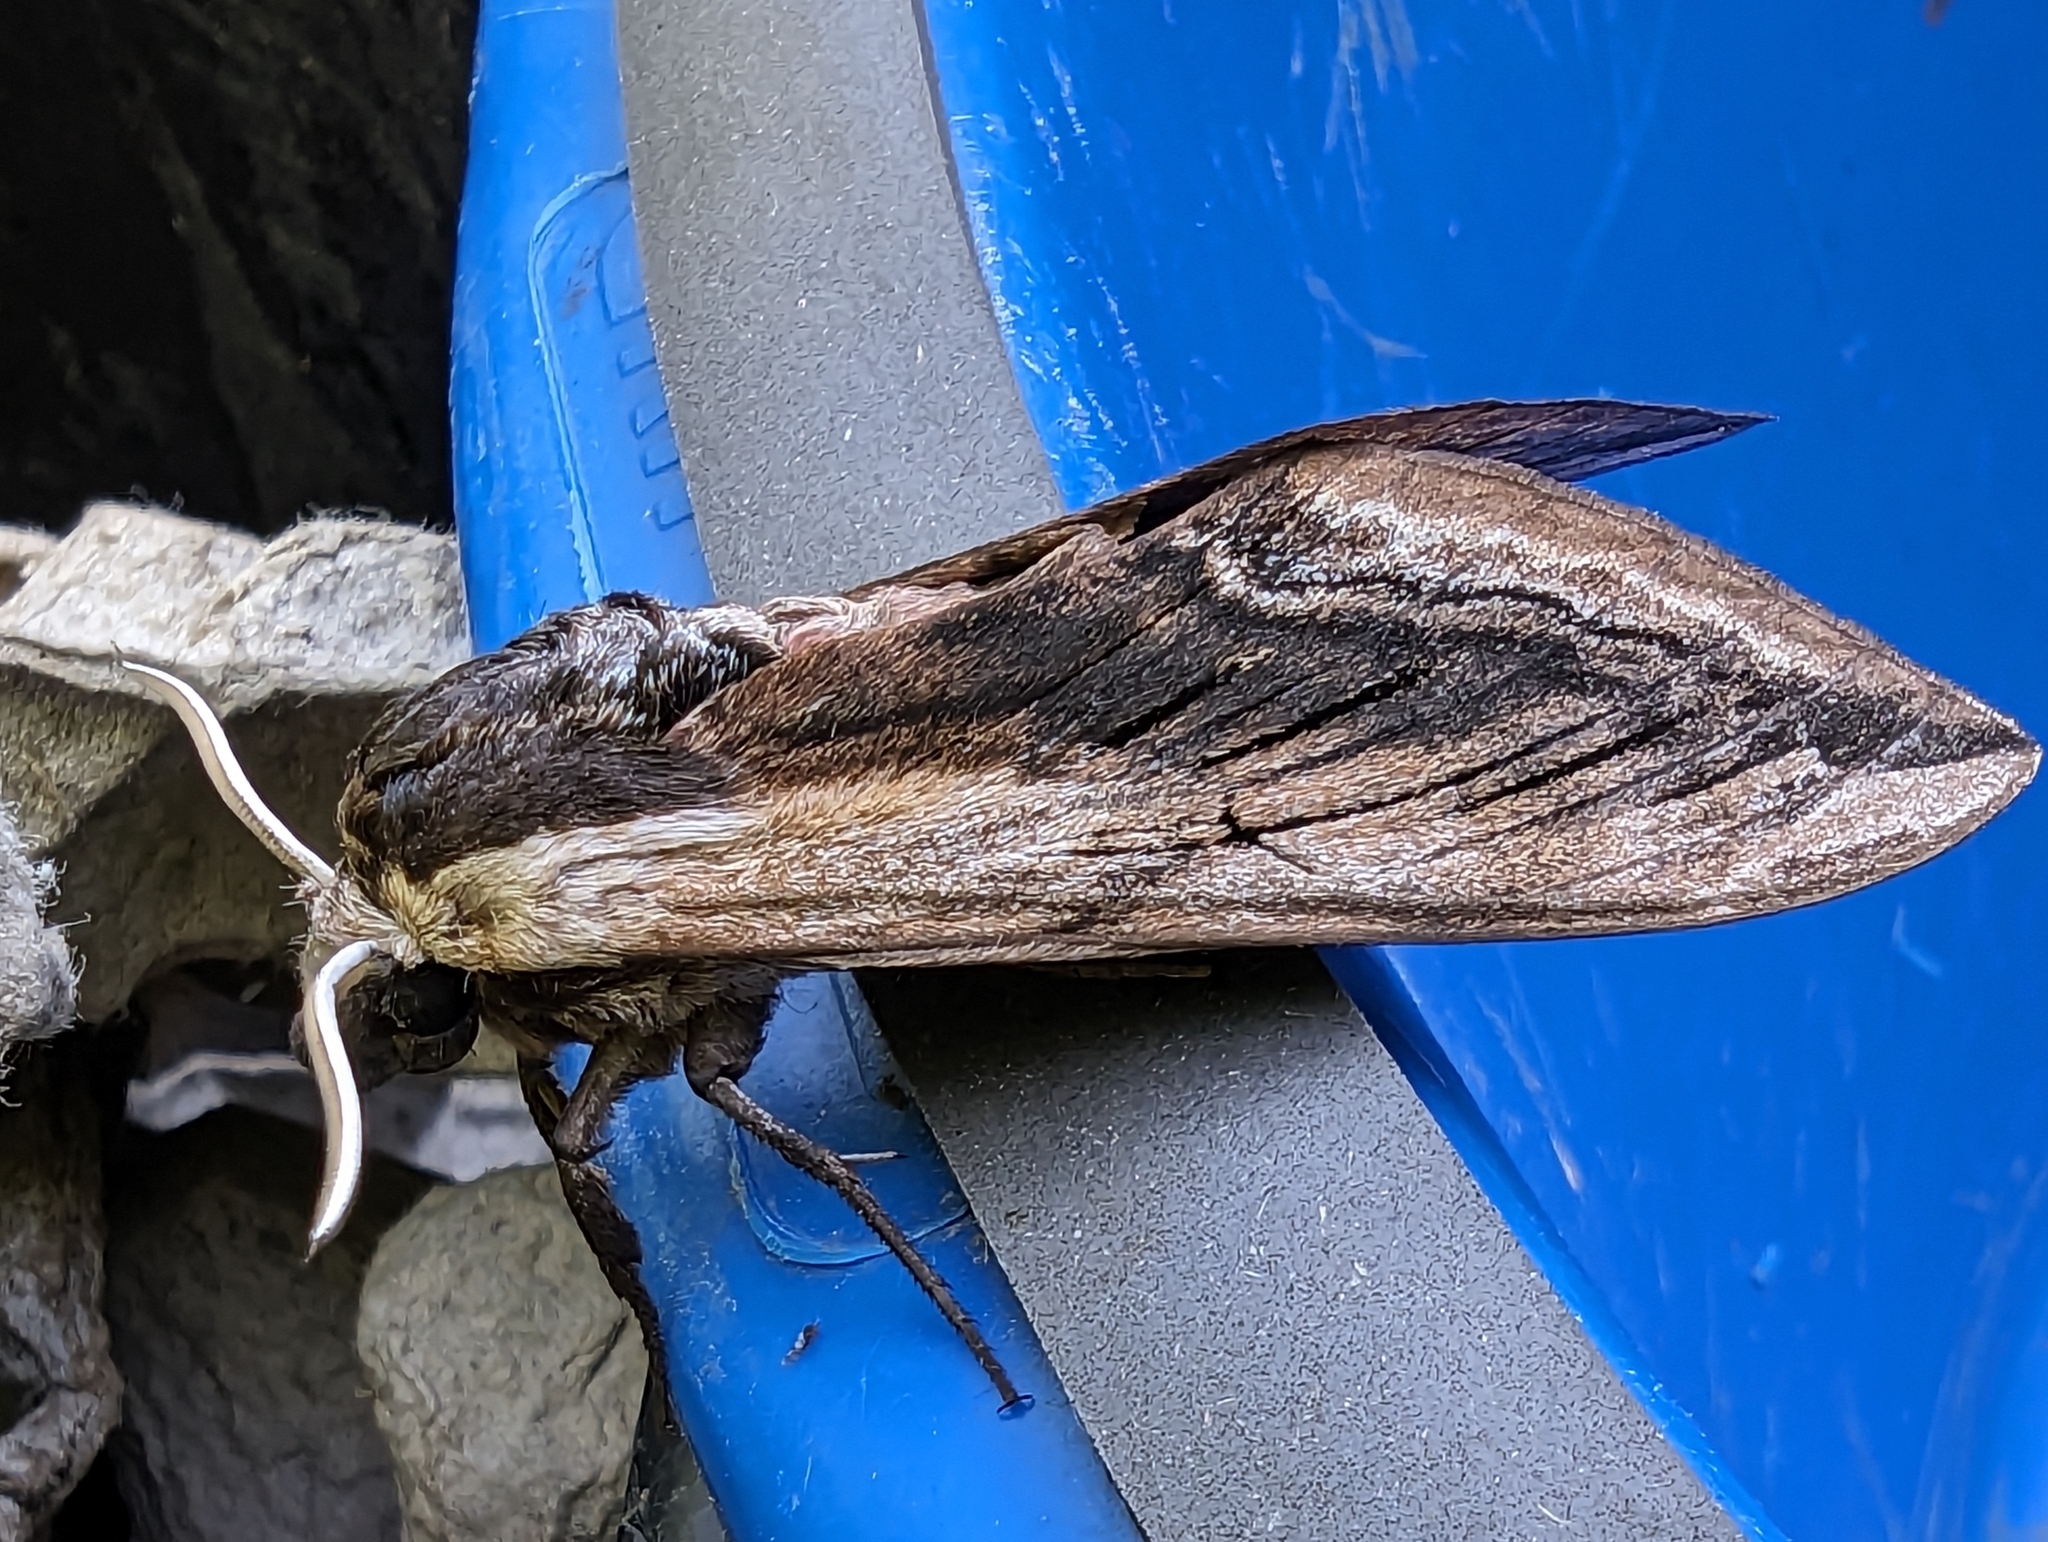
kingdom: Animalia
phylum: Arthropoda
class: Insecta
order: Lepidoptera
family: Sphingidae
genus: Sphinx
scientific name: Sphinx ligustri
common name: Privet hawk-moth
